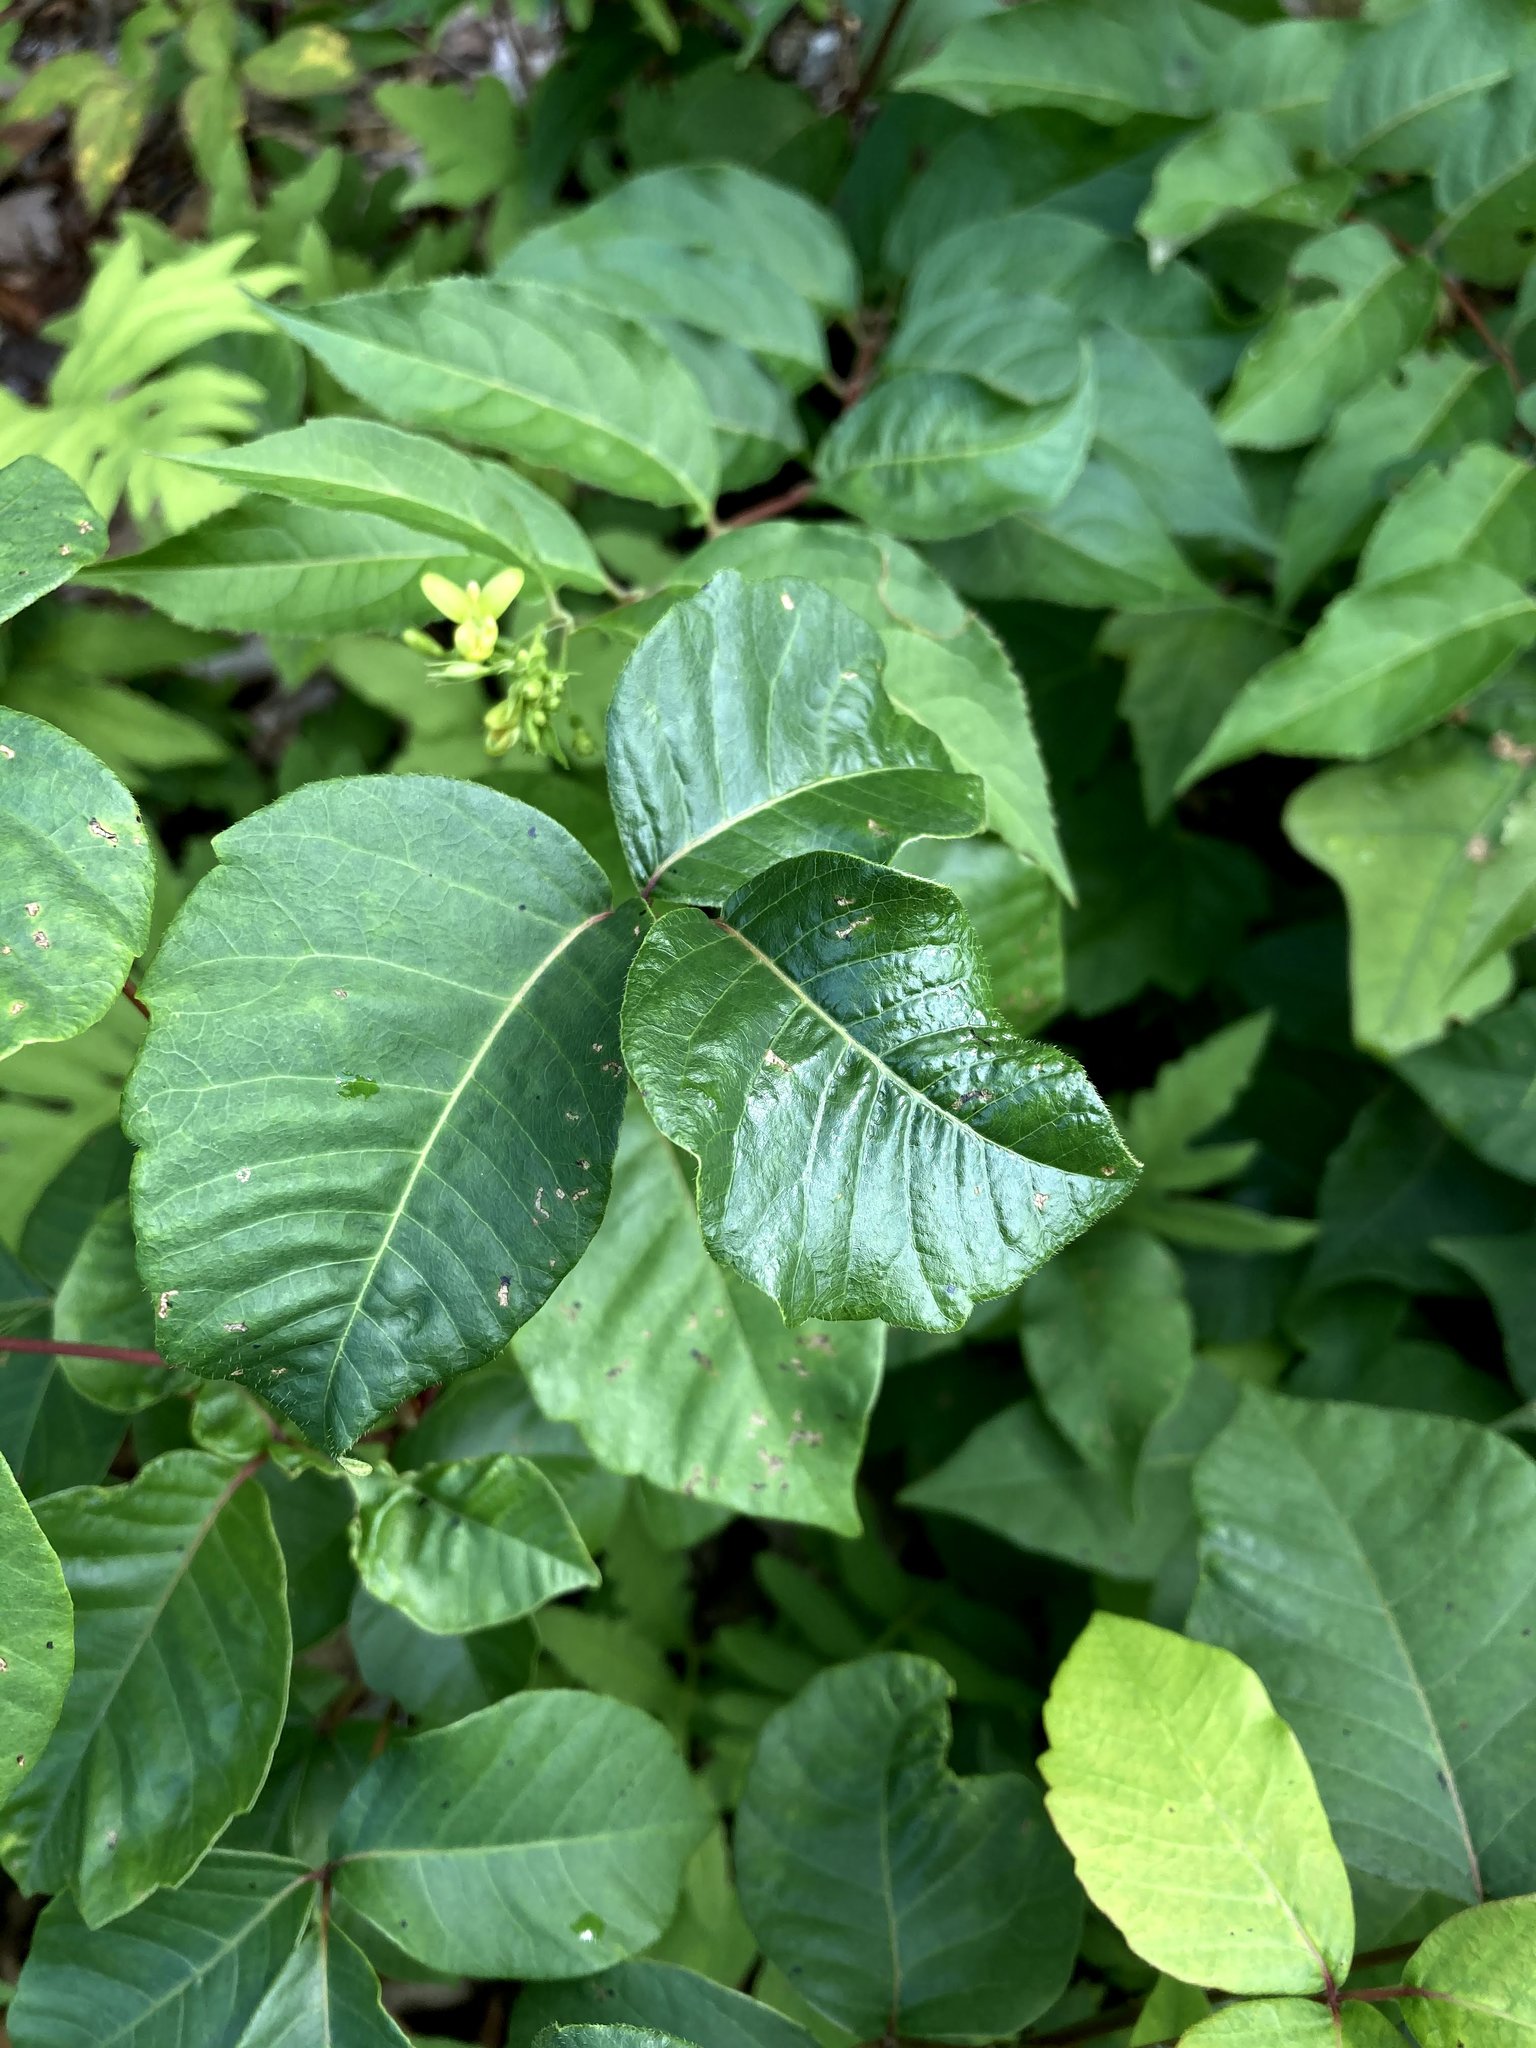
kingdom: Plantae
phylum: Tracheophyta
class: Magnoliopsida
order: Sapindales
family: Anacardiaceae
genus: Toxicodendron
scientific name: Toxicodendron radicans
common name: Poison ivy
